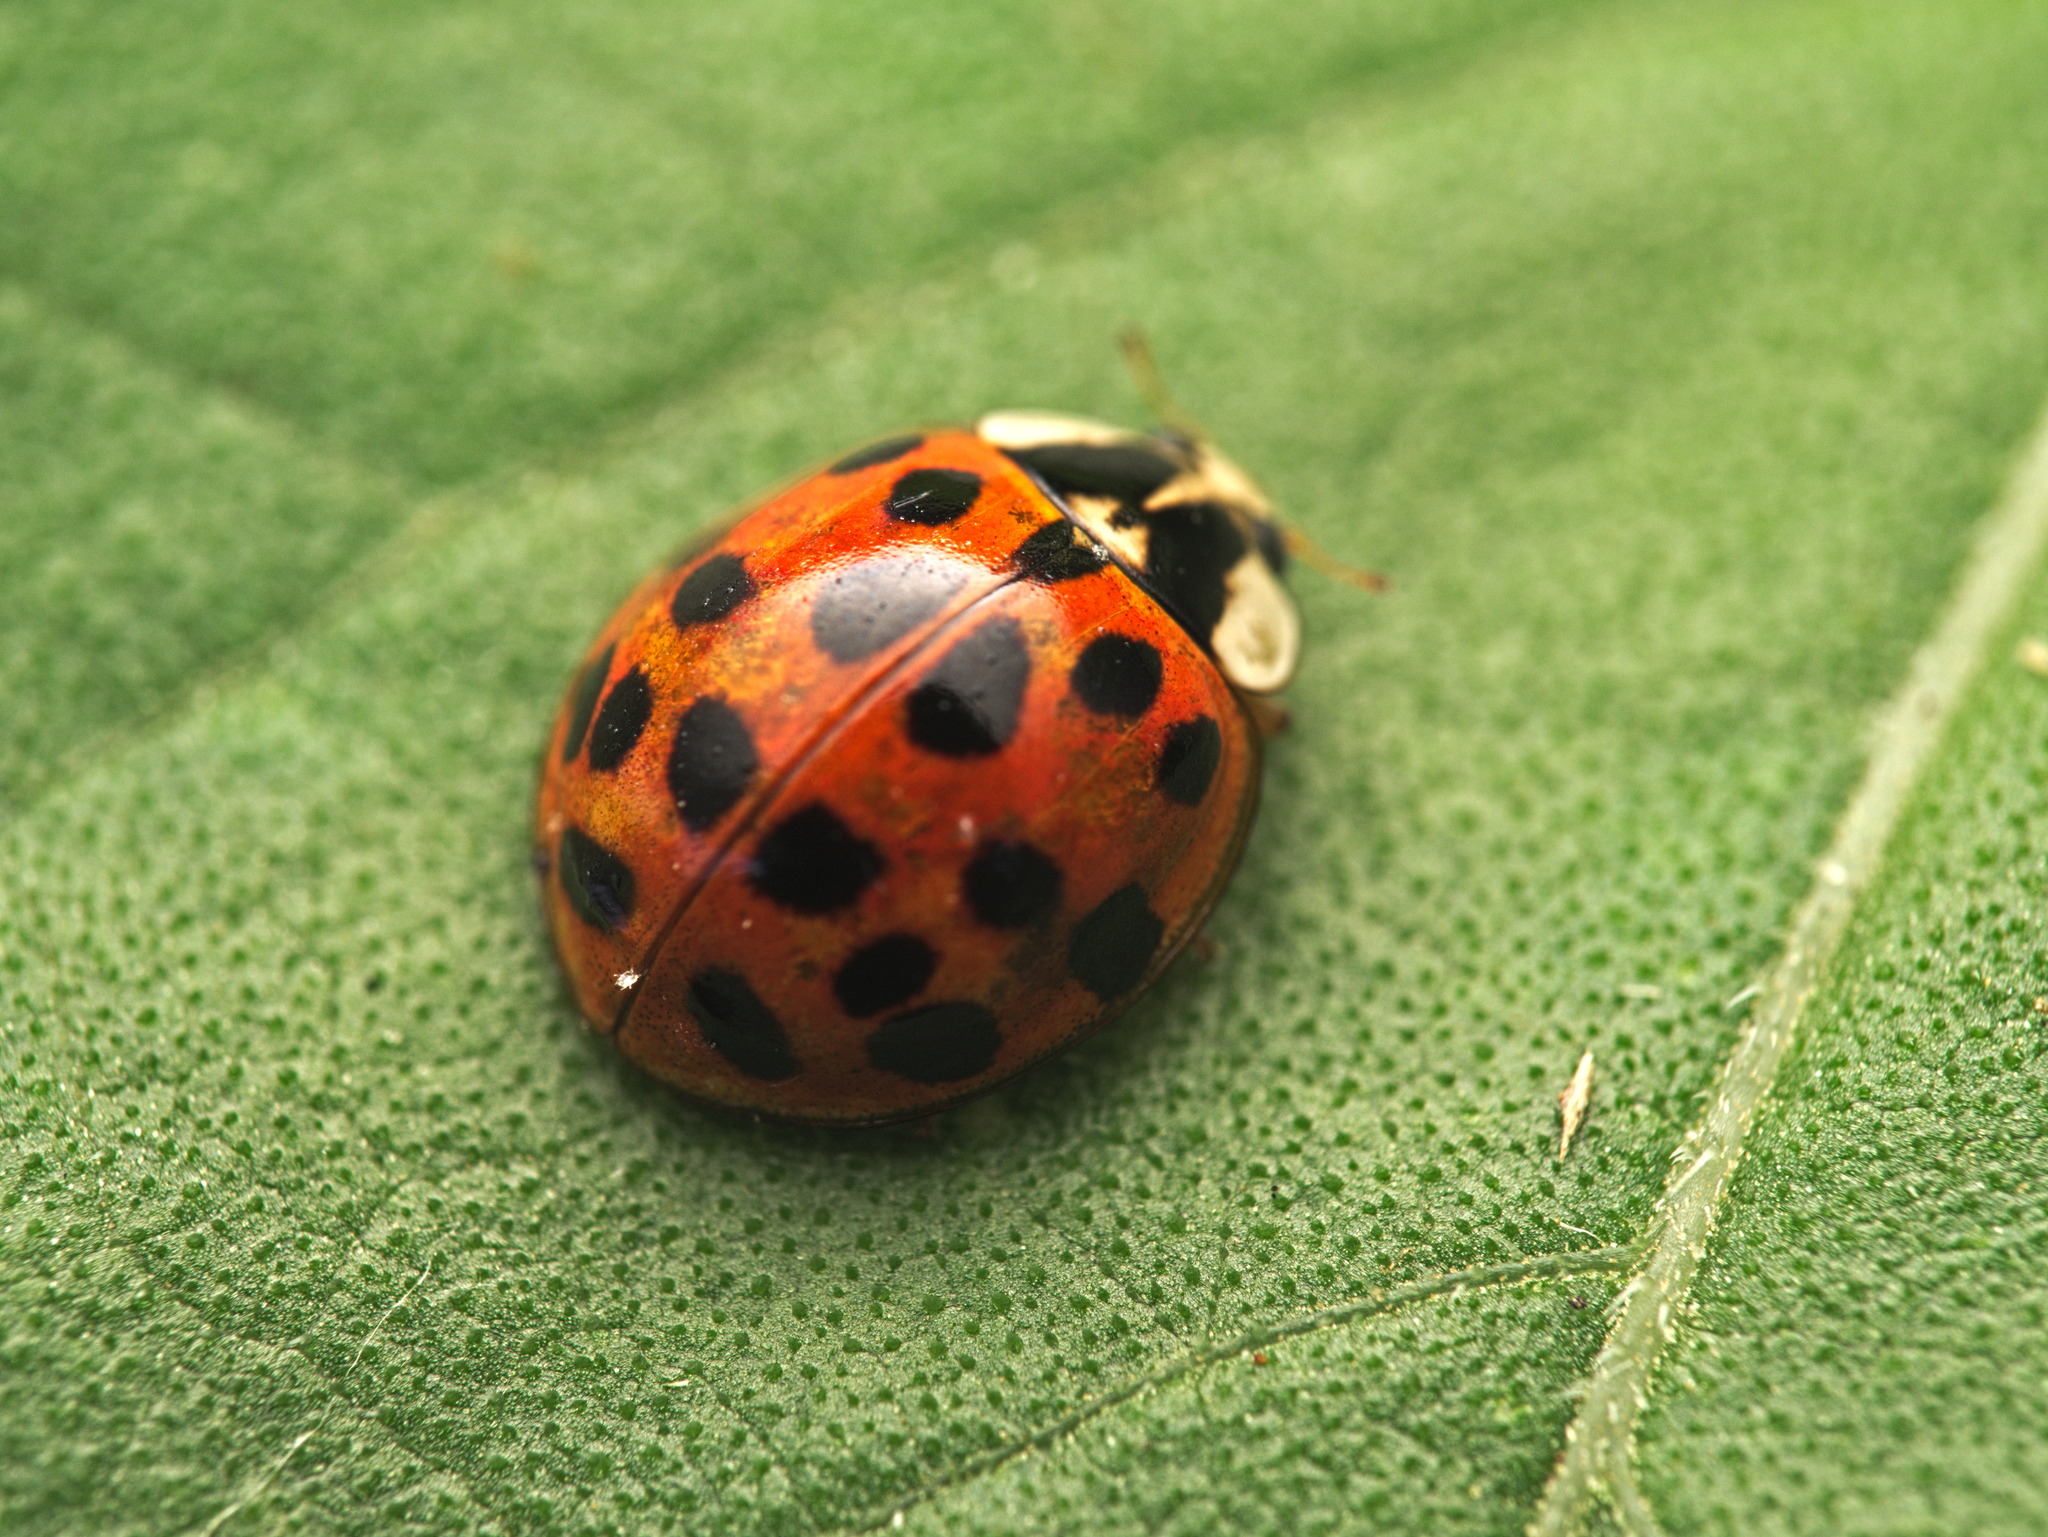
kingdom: Animalia
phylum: Arthropoda
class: Insecta
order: Coleoptera
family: Coccinellidae
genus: Harmonia
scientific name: Harmonia axyridis
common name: Harlequin ladybird
